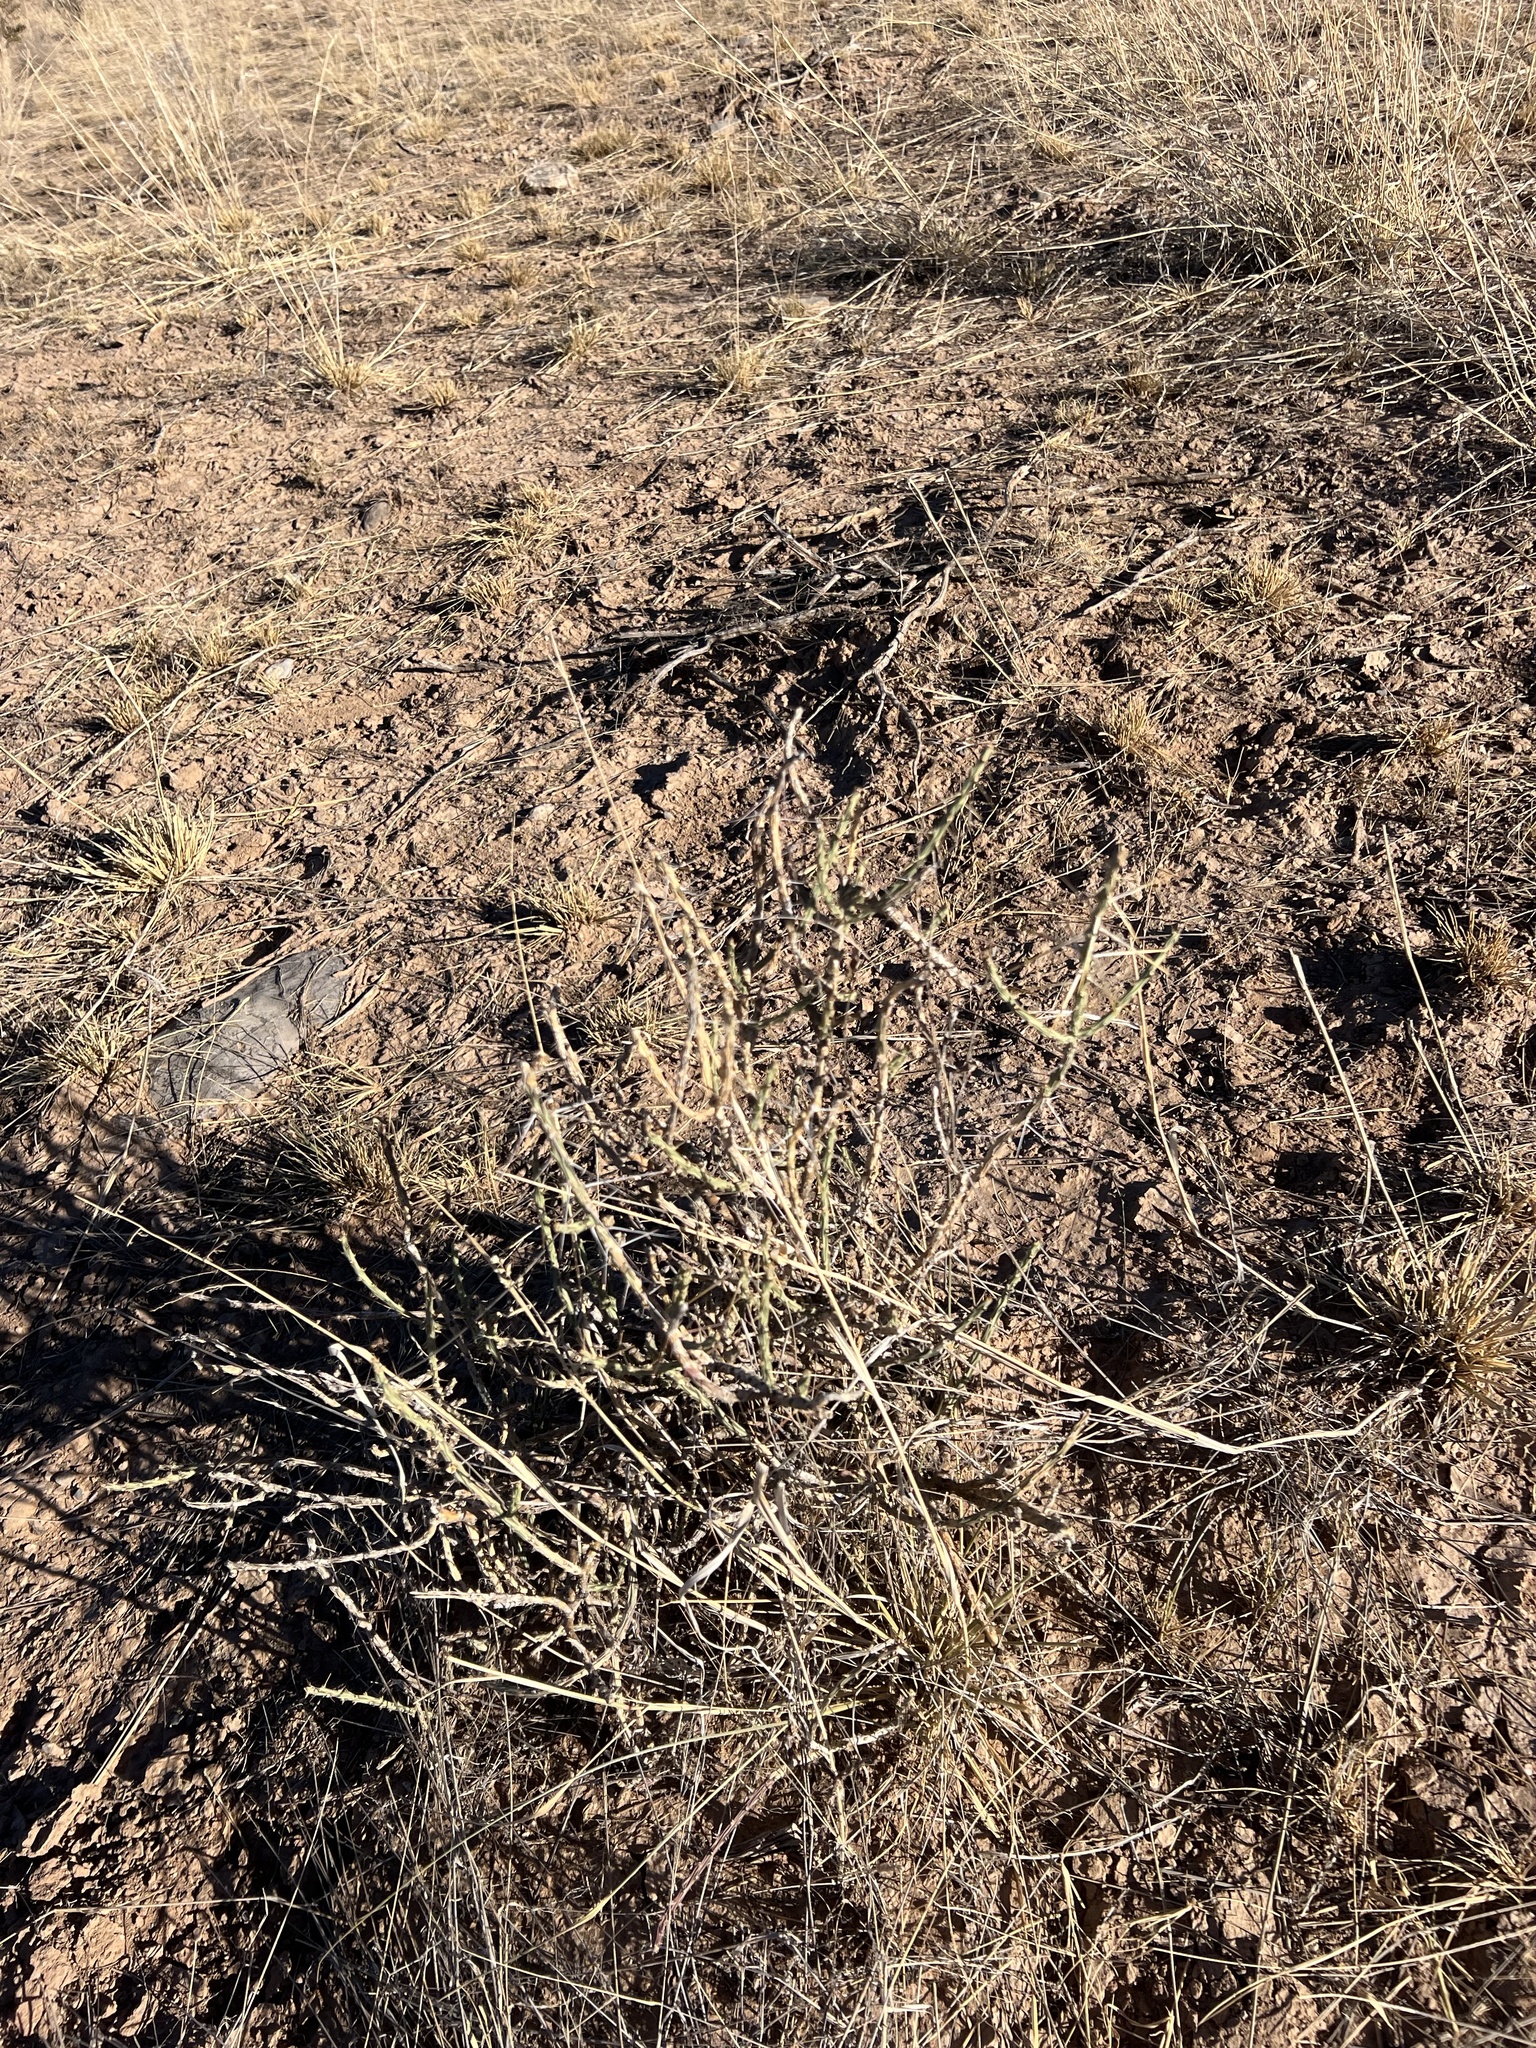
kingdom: Plantae
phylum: Tracheophyta
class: Magnoliopsida
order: Caryophyllales
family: Cactaceae
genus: Cylindropuntia
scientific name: Cylindropuntia leptocaulis
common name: Christmas cactus
